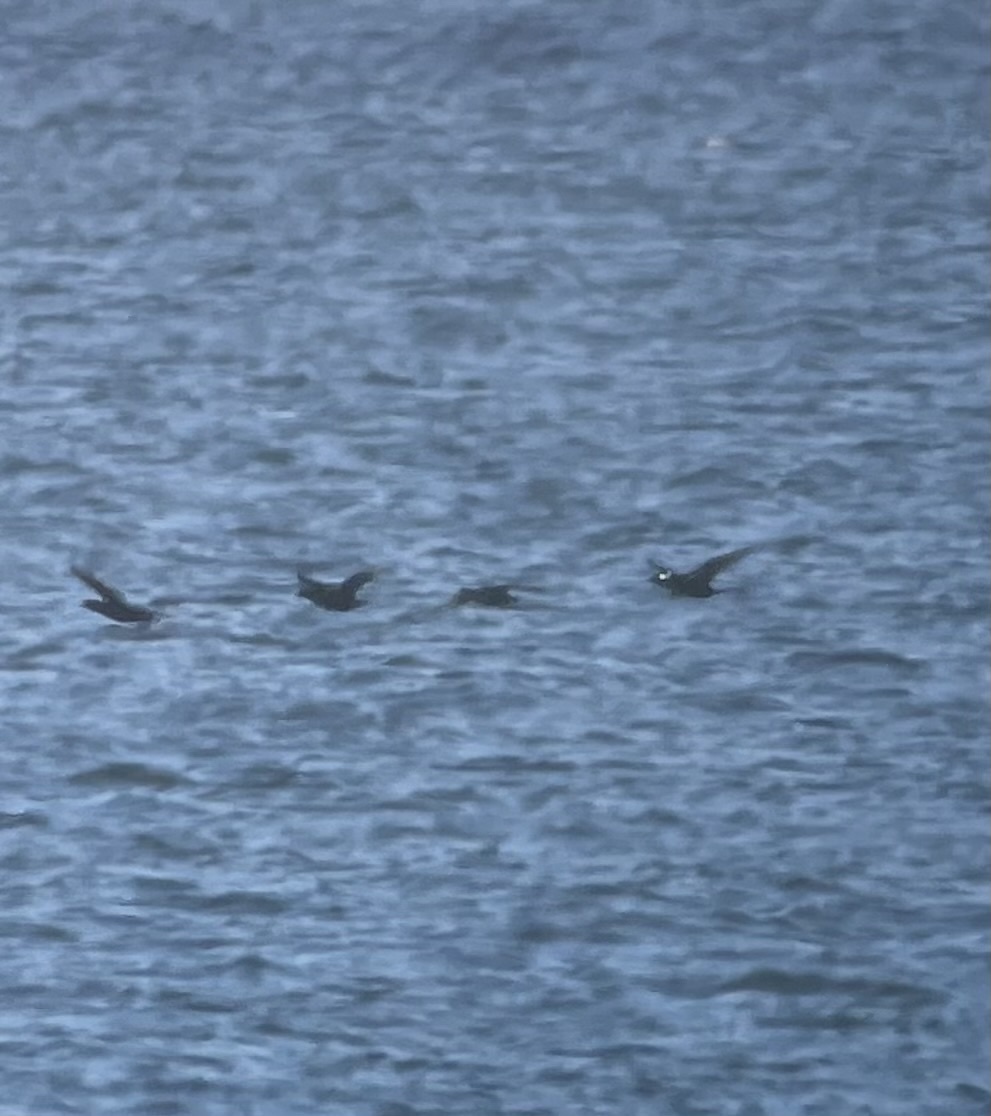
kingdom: Animalia
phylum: Chordata
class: Aves
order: Anseriformes
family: Anatidae
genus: Melanitta
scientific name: Melanitta perspicillata
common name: Surf scoter
